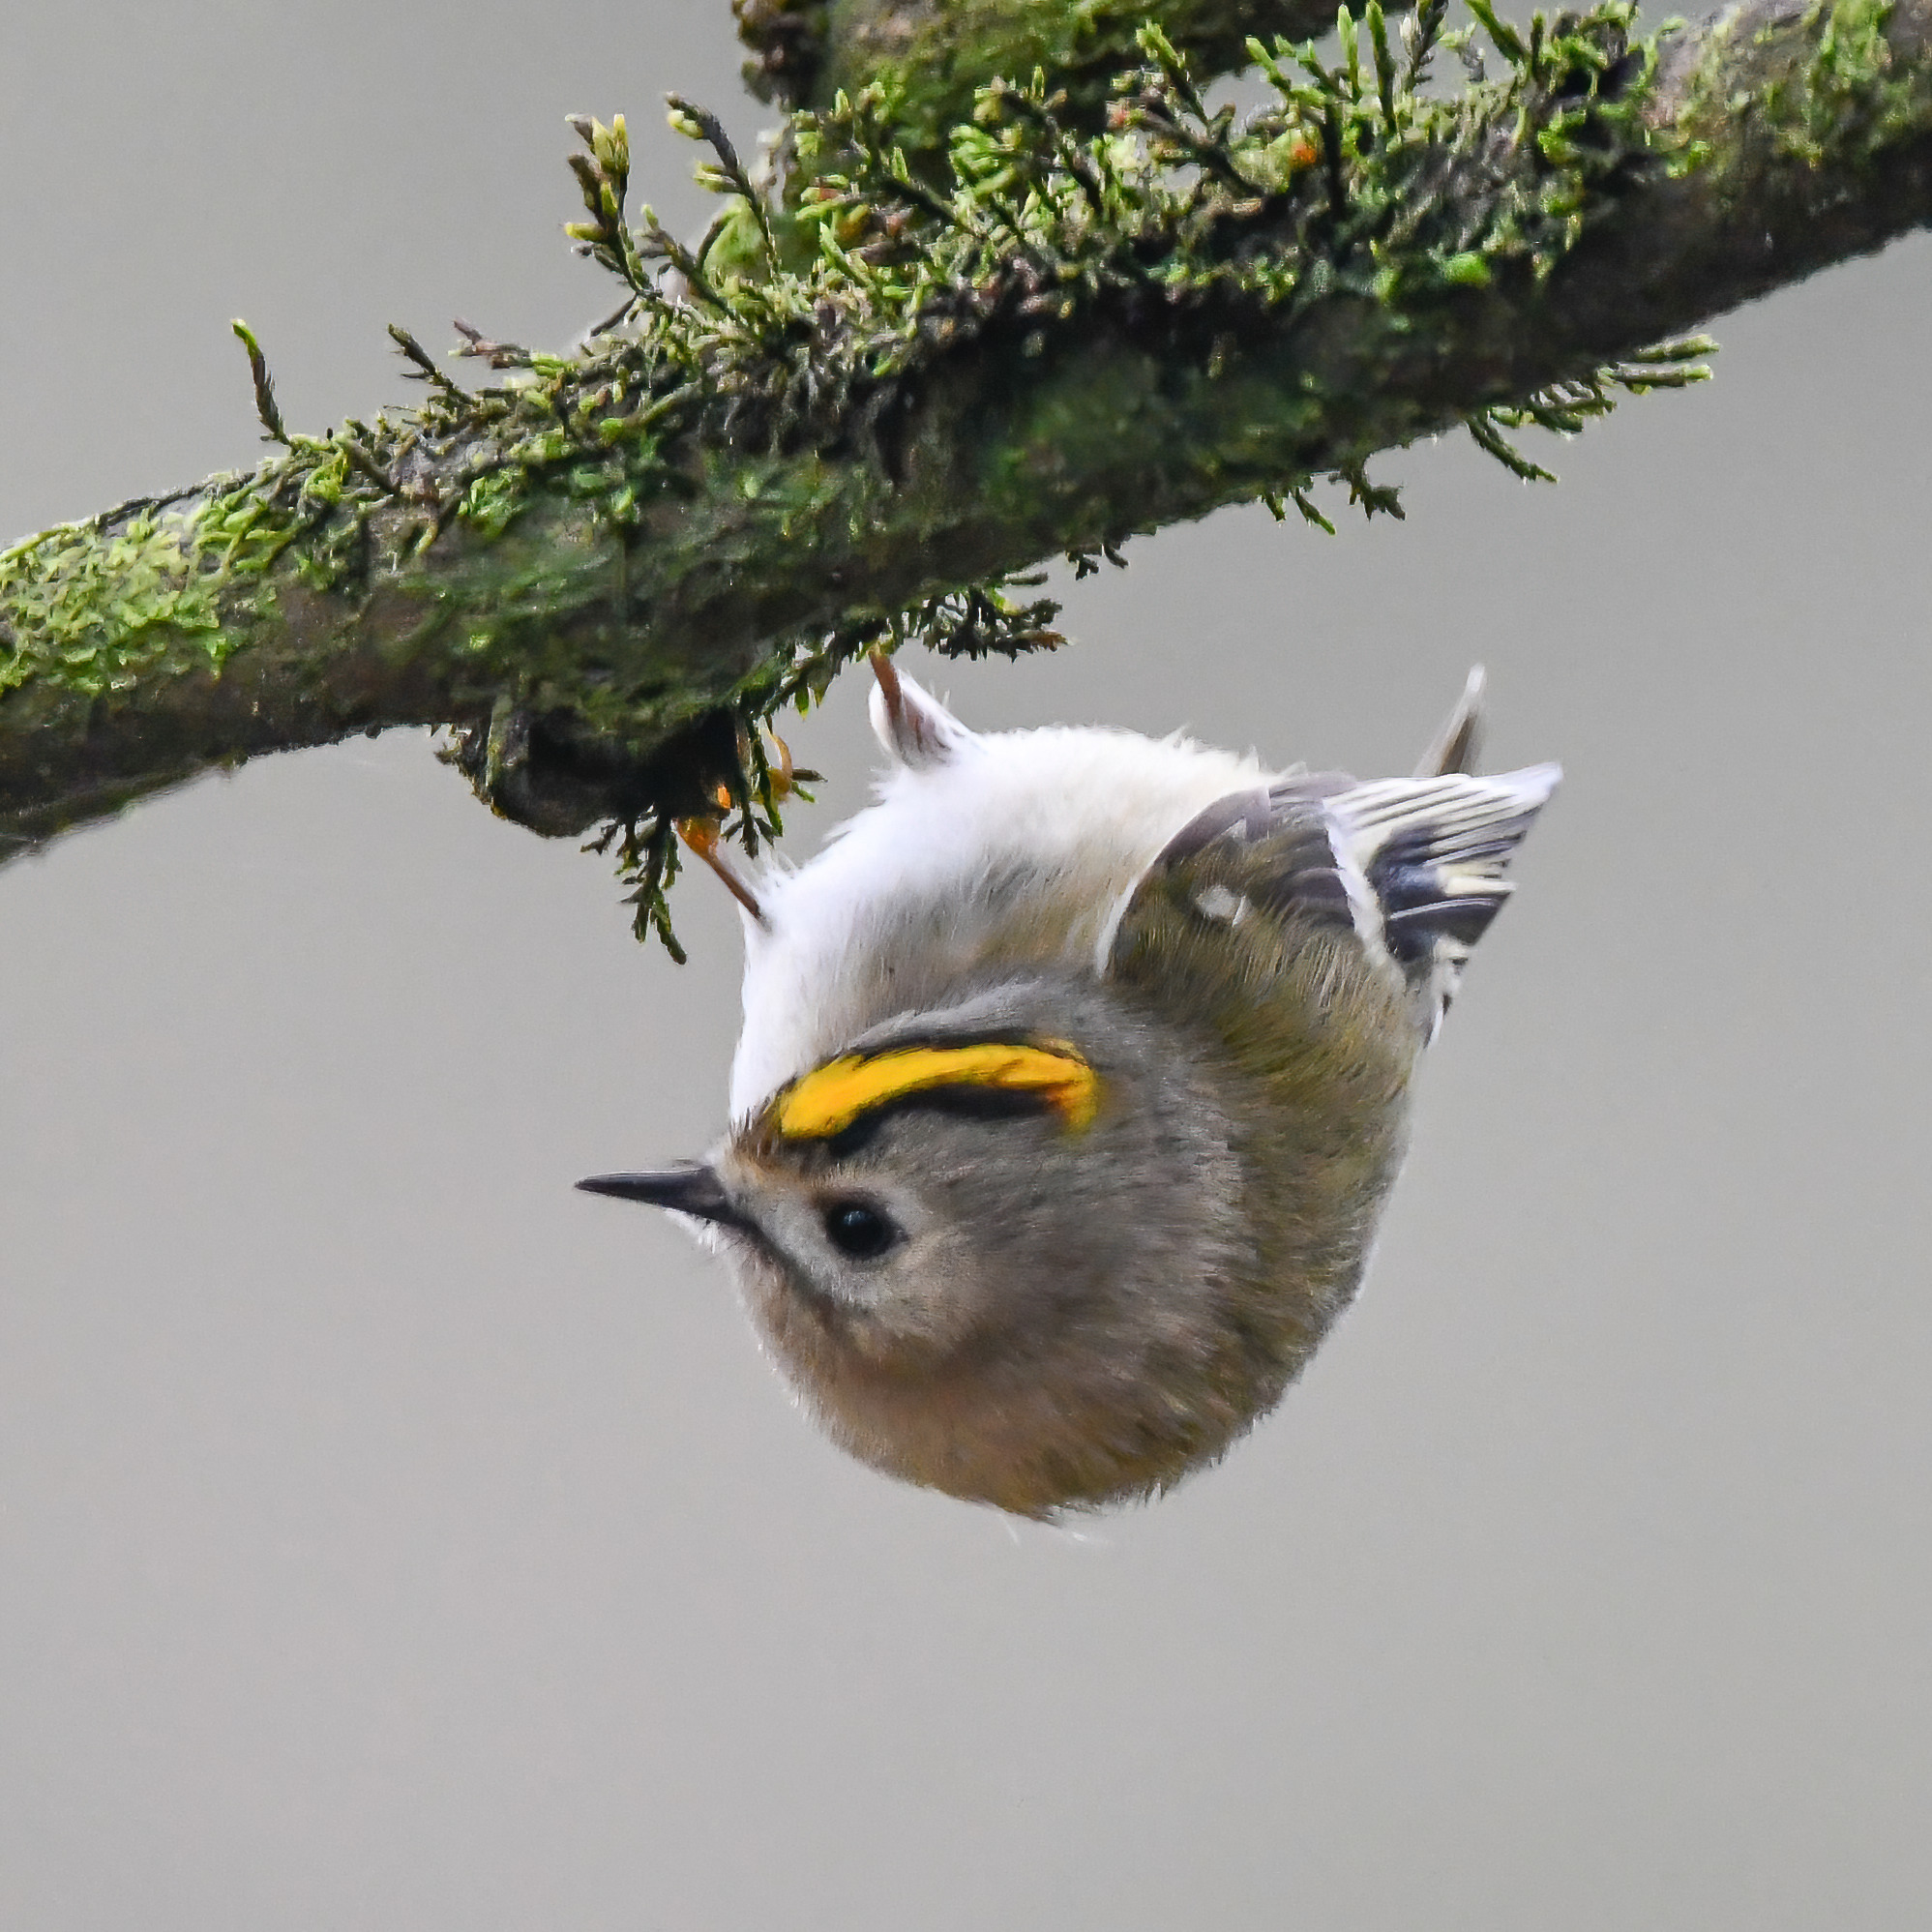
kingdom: Animalia
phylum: Chordata
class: Aves
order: Passeriformes
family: Regulidae
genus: Regulus
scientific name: Regulus regulus
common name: Goldcrest
